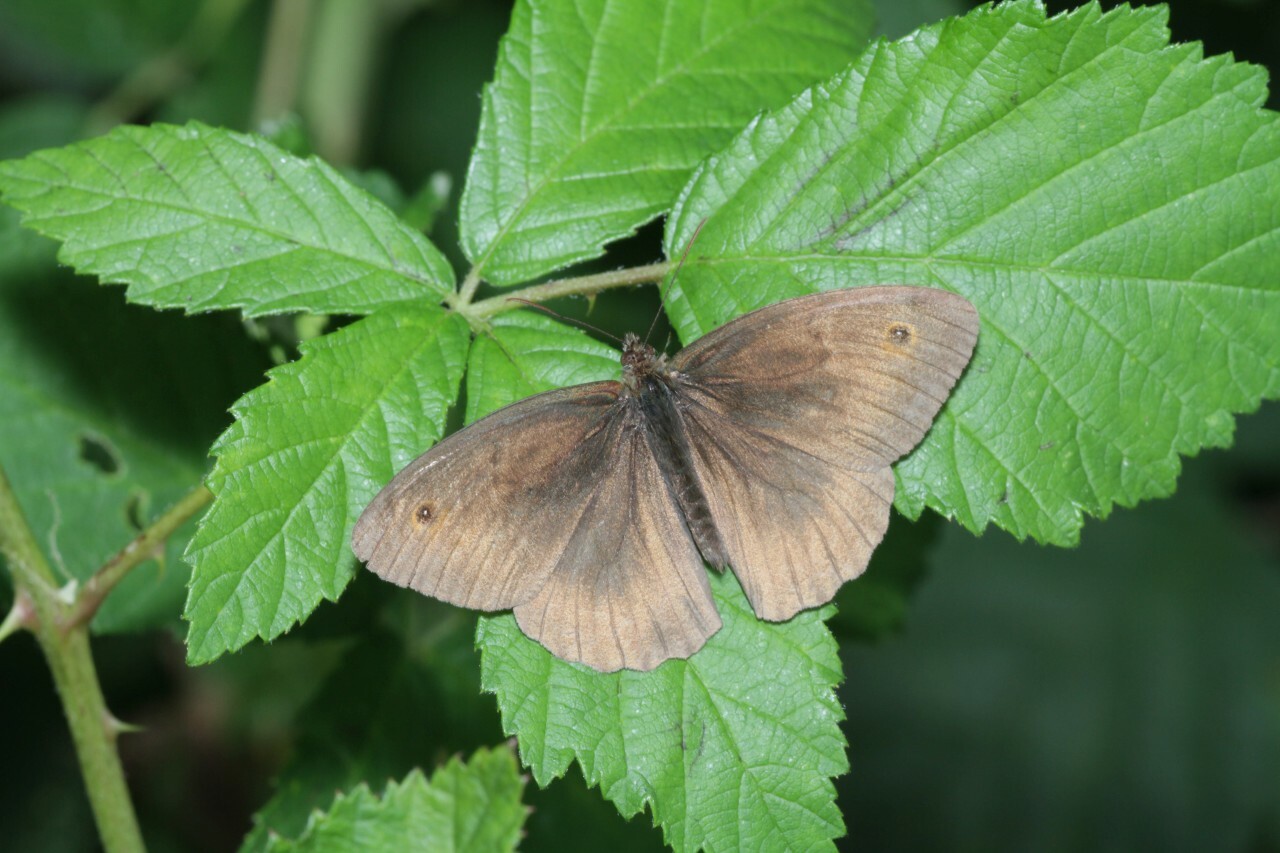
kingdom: Animalia
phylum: Arthropoda
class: Insecta
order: Lepidoptera
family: Nymphalidae
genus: Maniola
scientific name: Maniola jurtina
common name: Meadow brown
